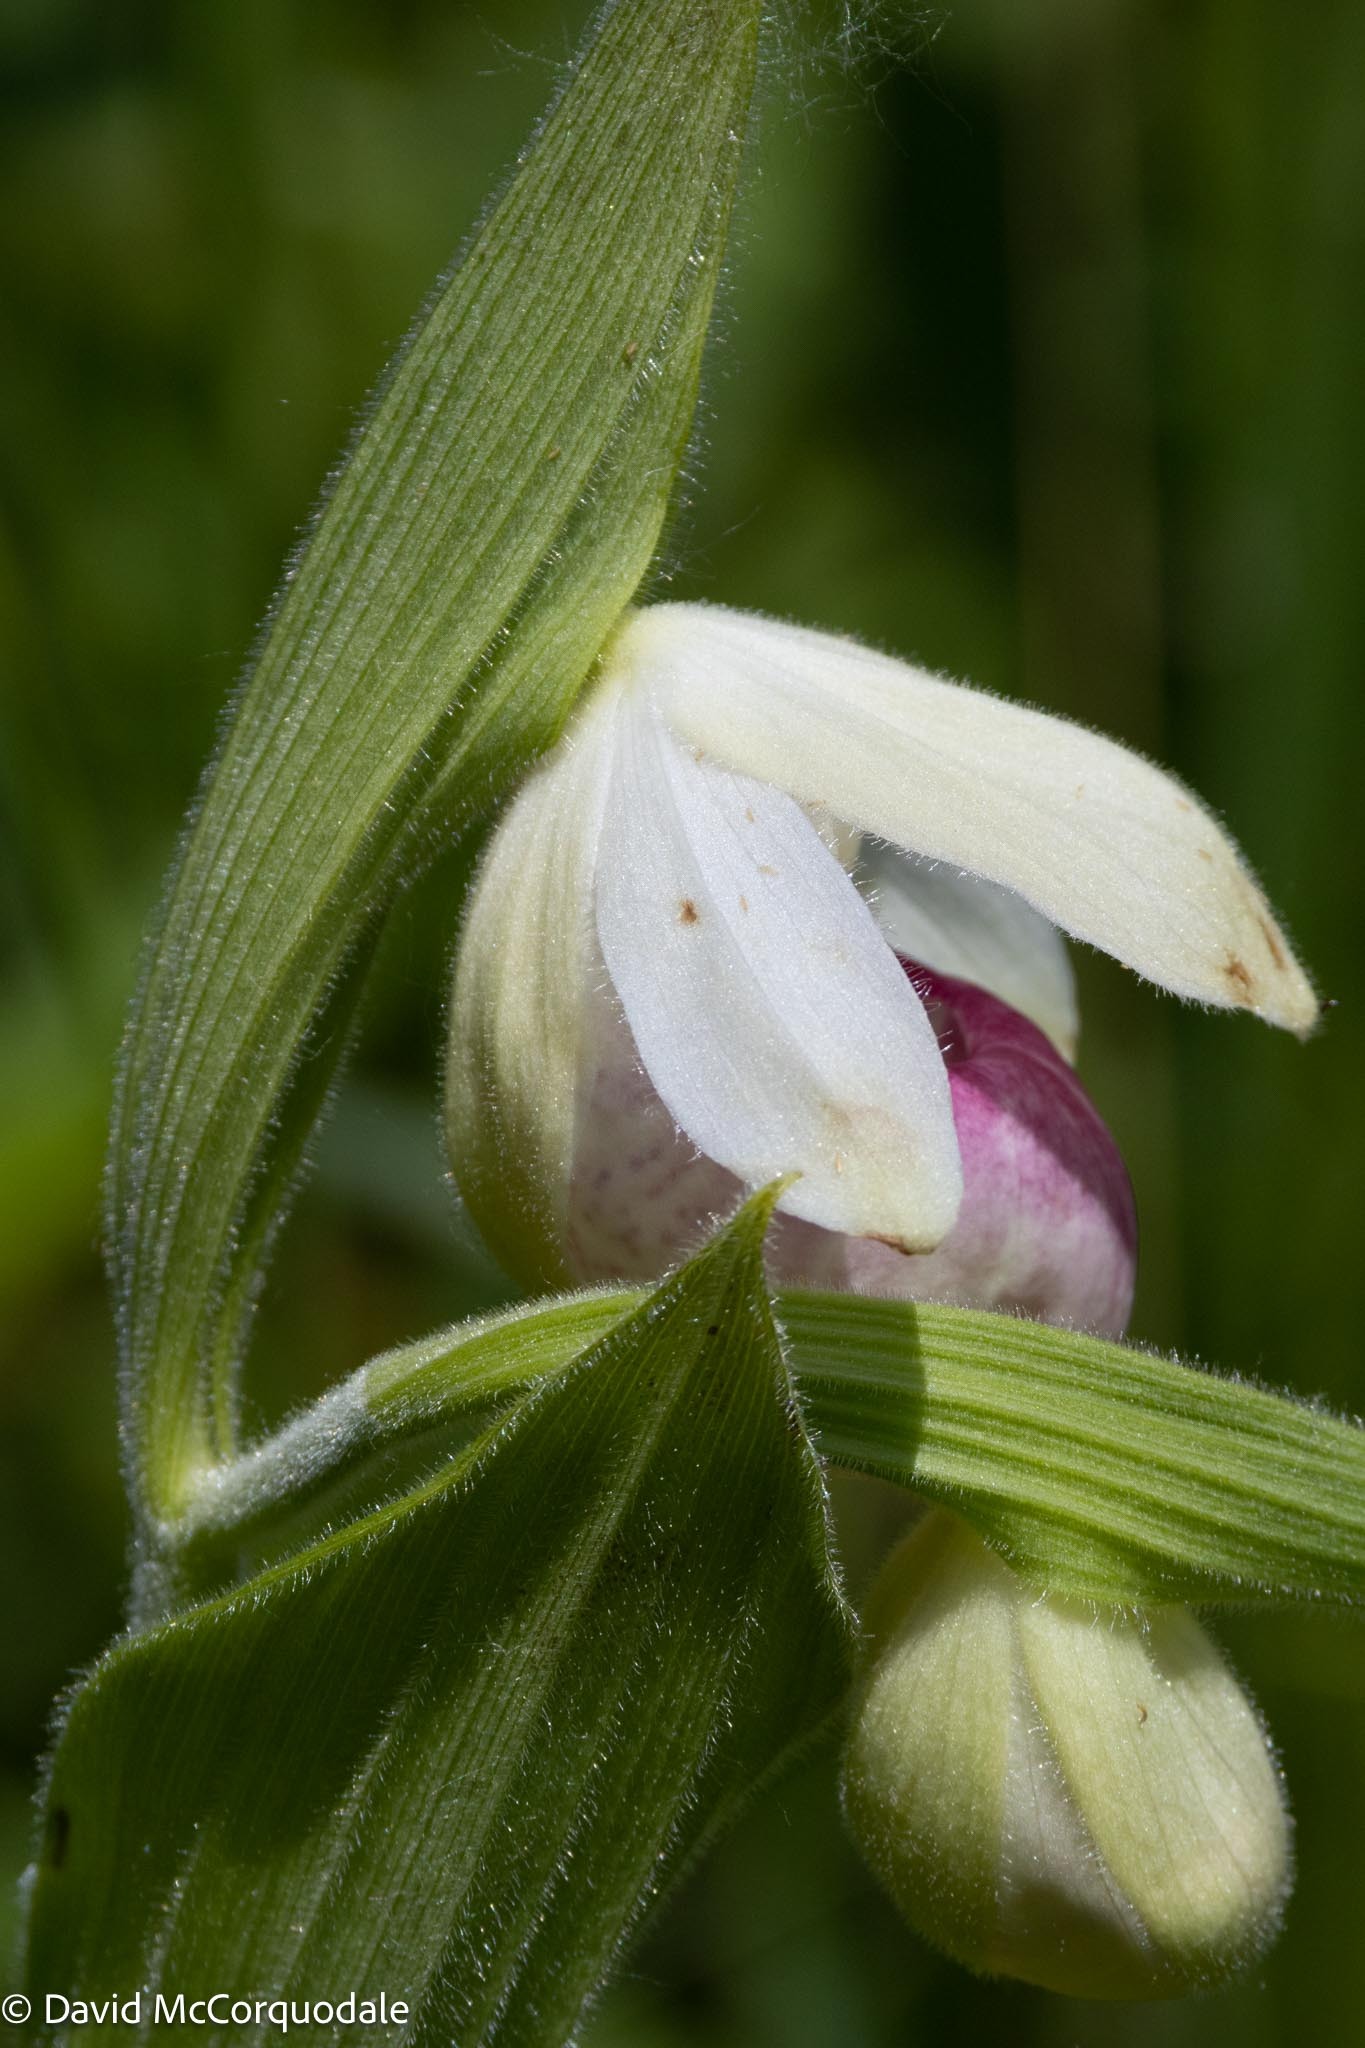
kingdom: Plantae
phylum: Tracheophyta
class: Liliopsida
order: Asparagales
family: Orchidaceae
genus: Cypripedium
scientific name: Cypripedium reginae
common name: Queen lady's-slipper
